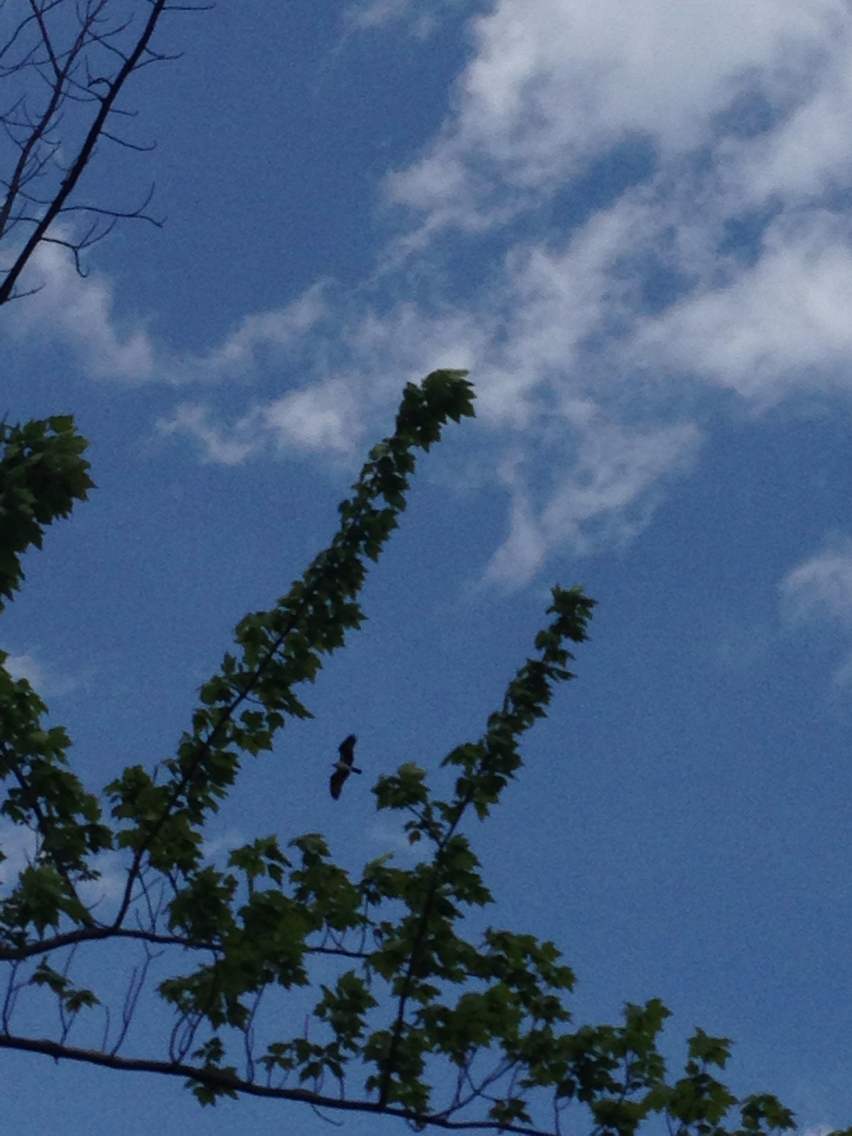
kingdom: Animalia
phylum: Chordata
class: Aves
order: Accipitriformes
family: Pandionidae
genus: Pandion
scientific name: Pandion haliaetus
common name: Osprey
